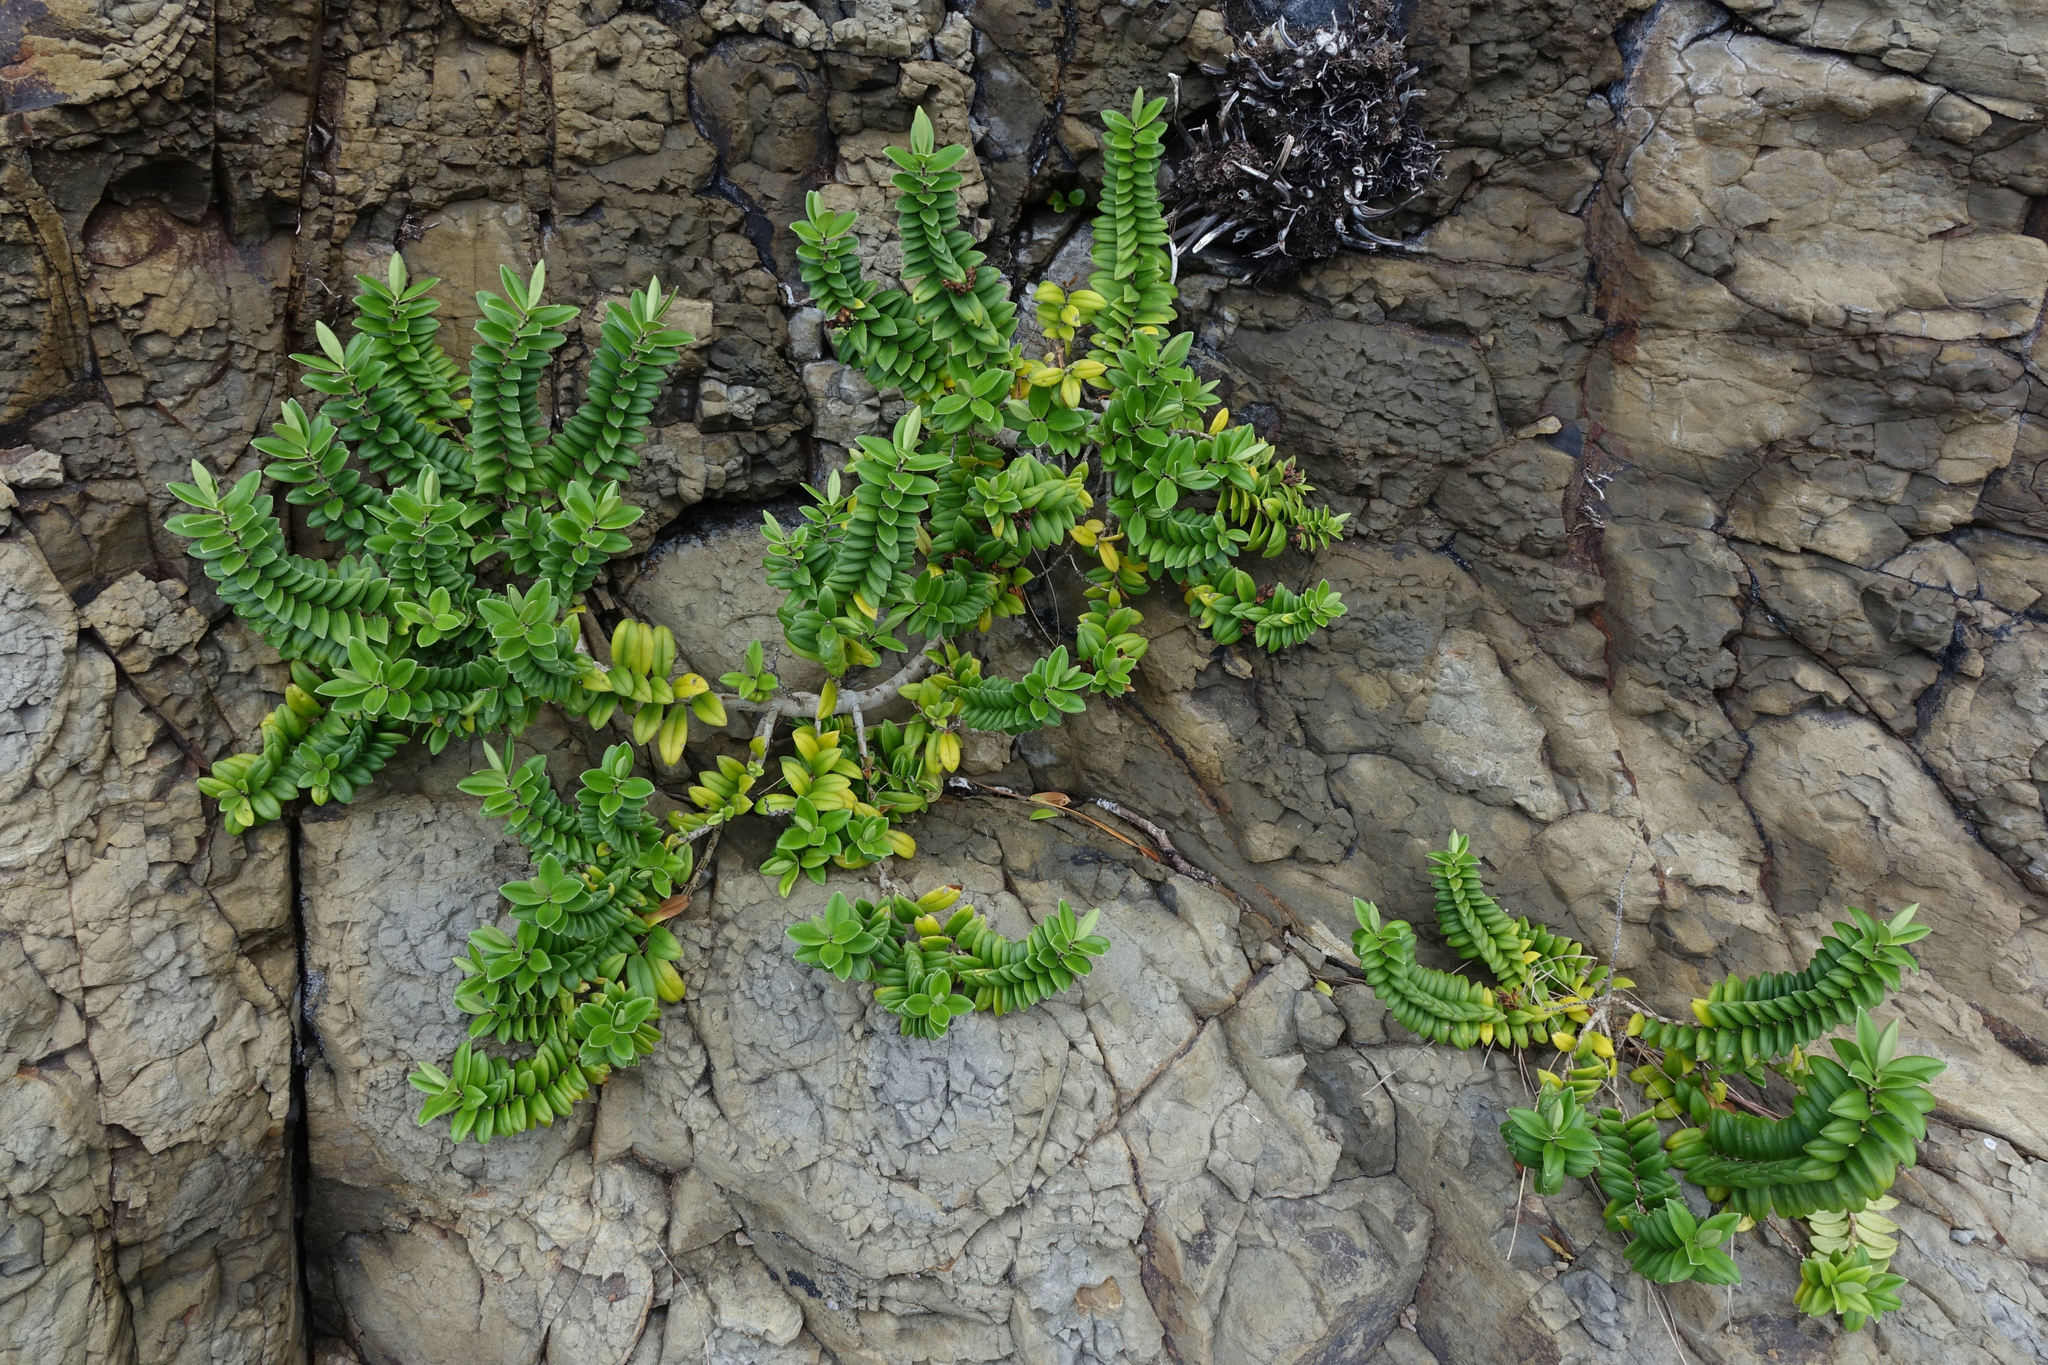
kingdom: Plantae
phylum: Tracheophyta
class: Magnoliopsida
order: Lamiales
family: Plantaginaceae
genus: Veronica
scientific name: Veronica elliptica
